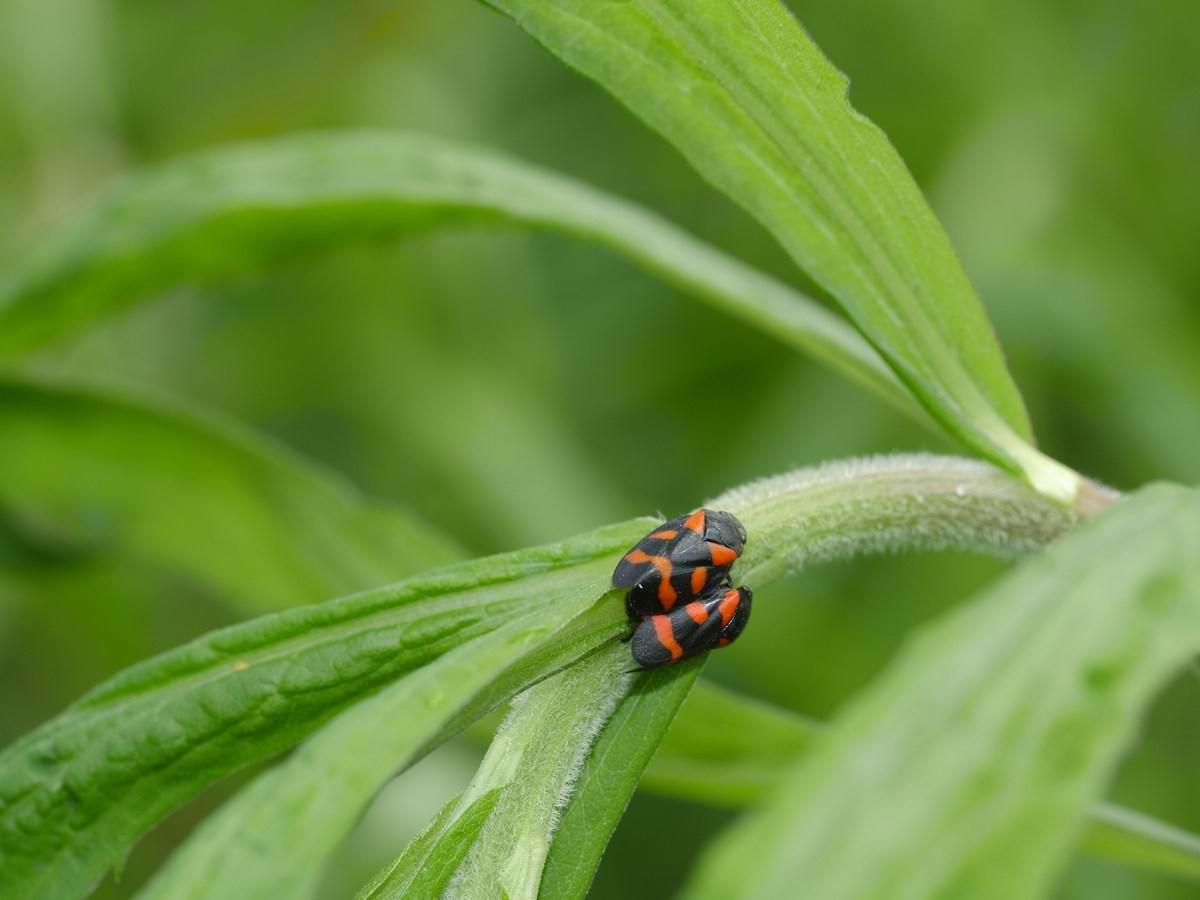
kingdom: Animalia
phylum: Arthropoda
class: Insecta
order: Hemiptera
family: Cercopidae
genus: Cercopis
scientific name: Cercopis sanguinolenta
